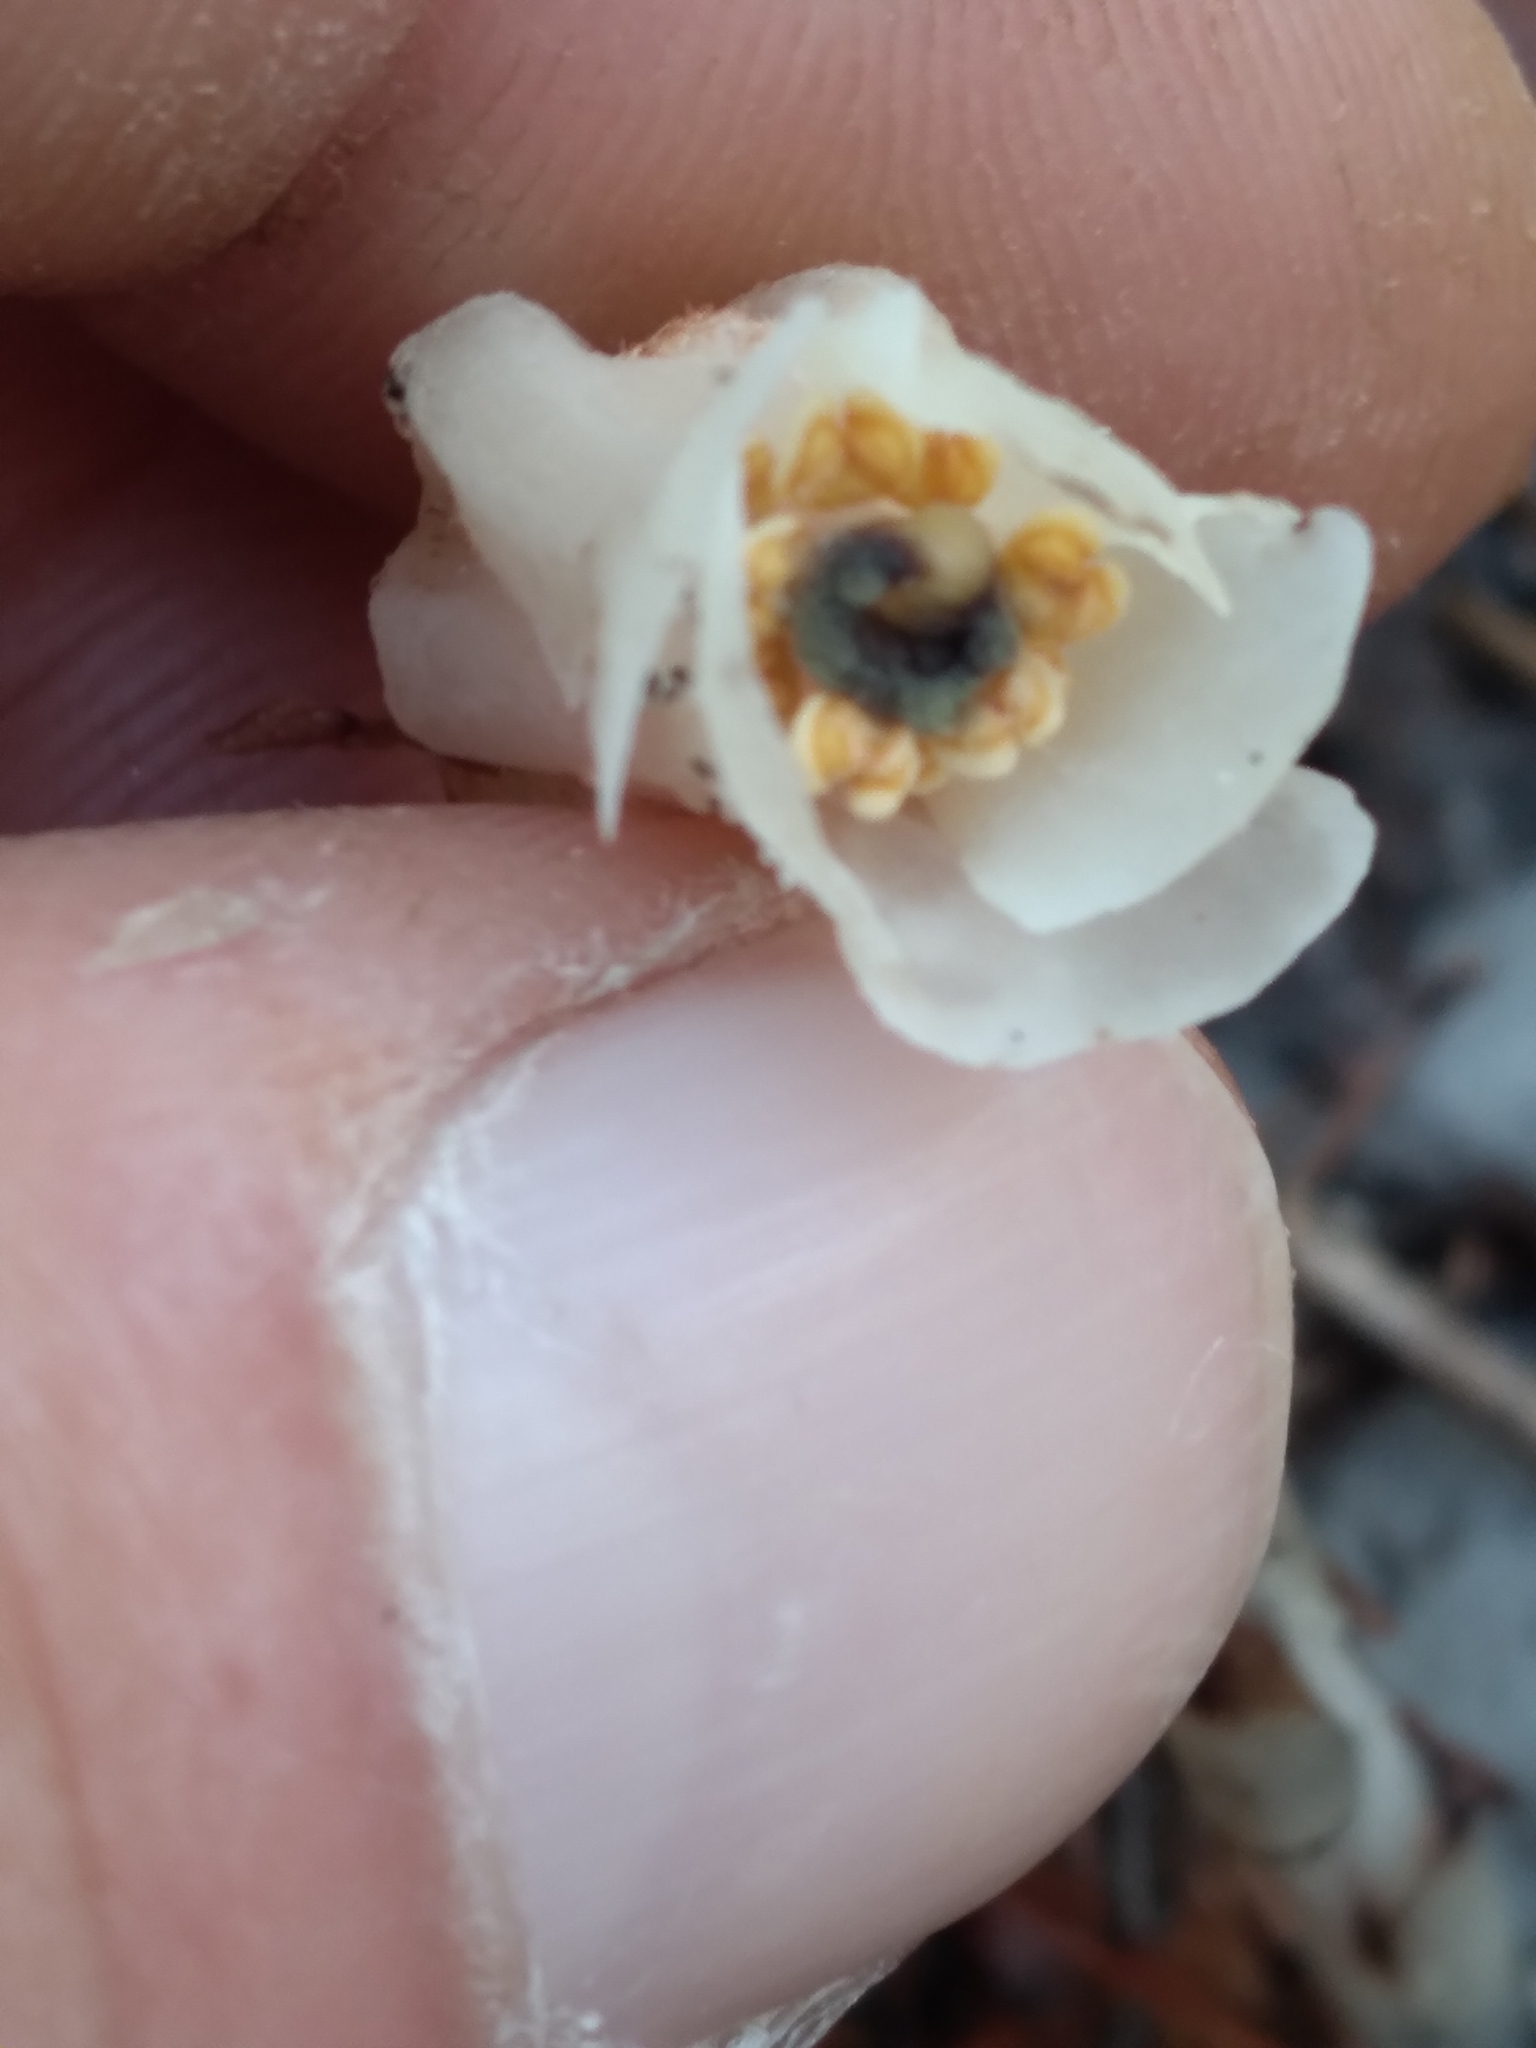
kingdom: Plantae
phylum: Tracheophyta
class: Magnoliopsida
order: Ericales
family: Ericaceae
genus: Monotropa
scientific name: Monotropa uniflora
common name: Convulsion root
